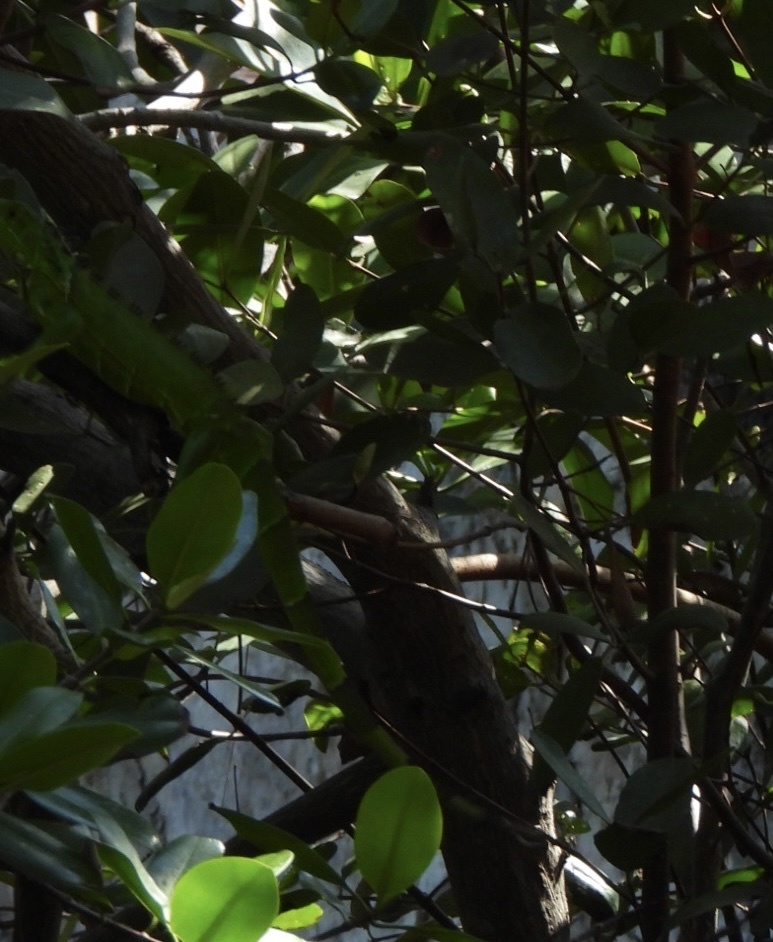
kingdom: Animalia
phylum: Chordata
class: Squamata
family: Iguanidae
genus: Iguana
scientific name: Iguana iguana
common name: Green iguana
